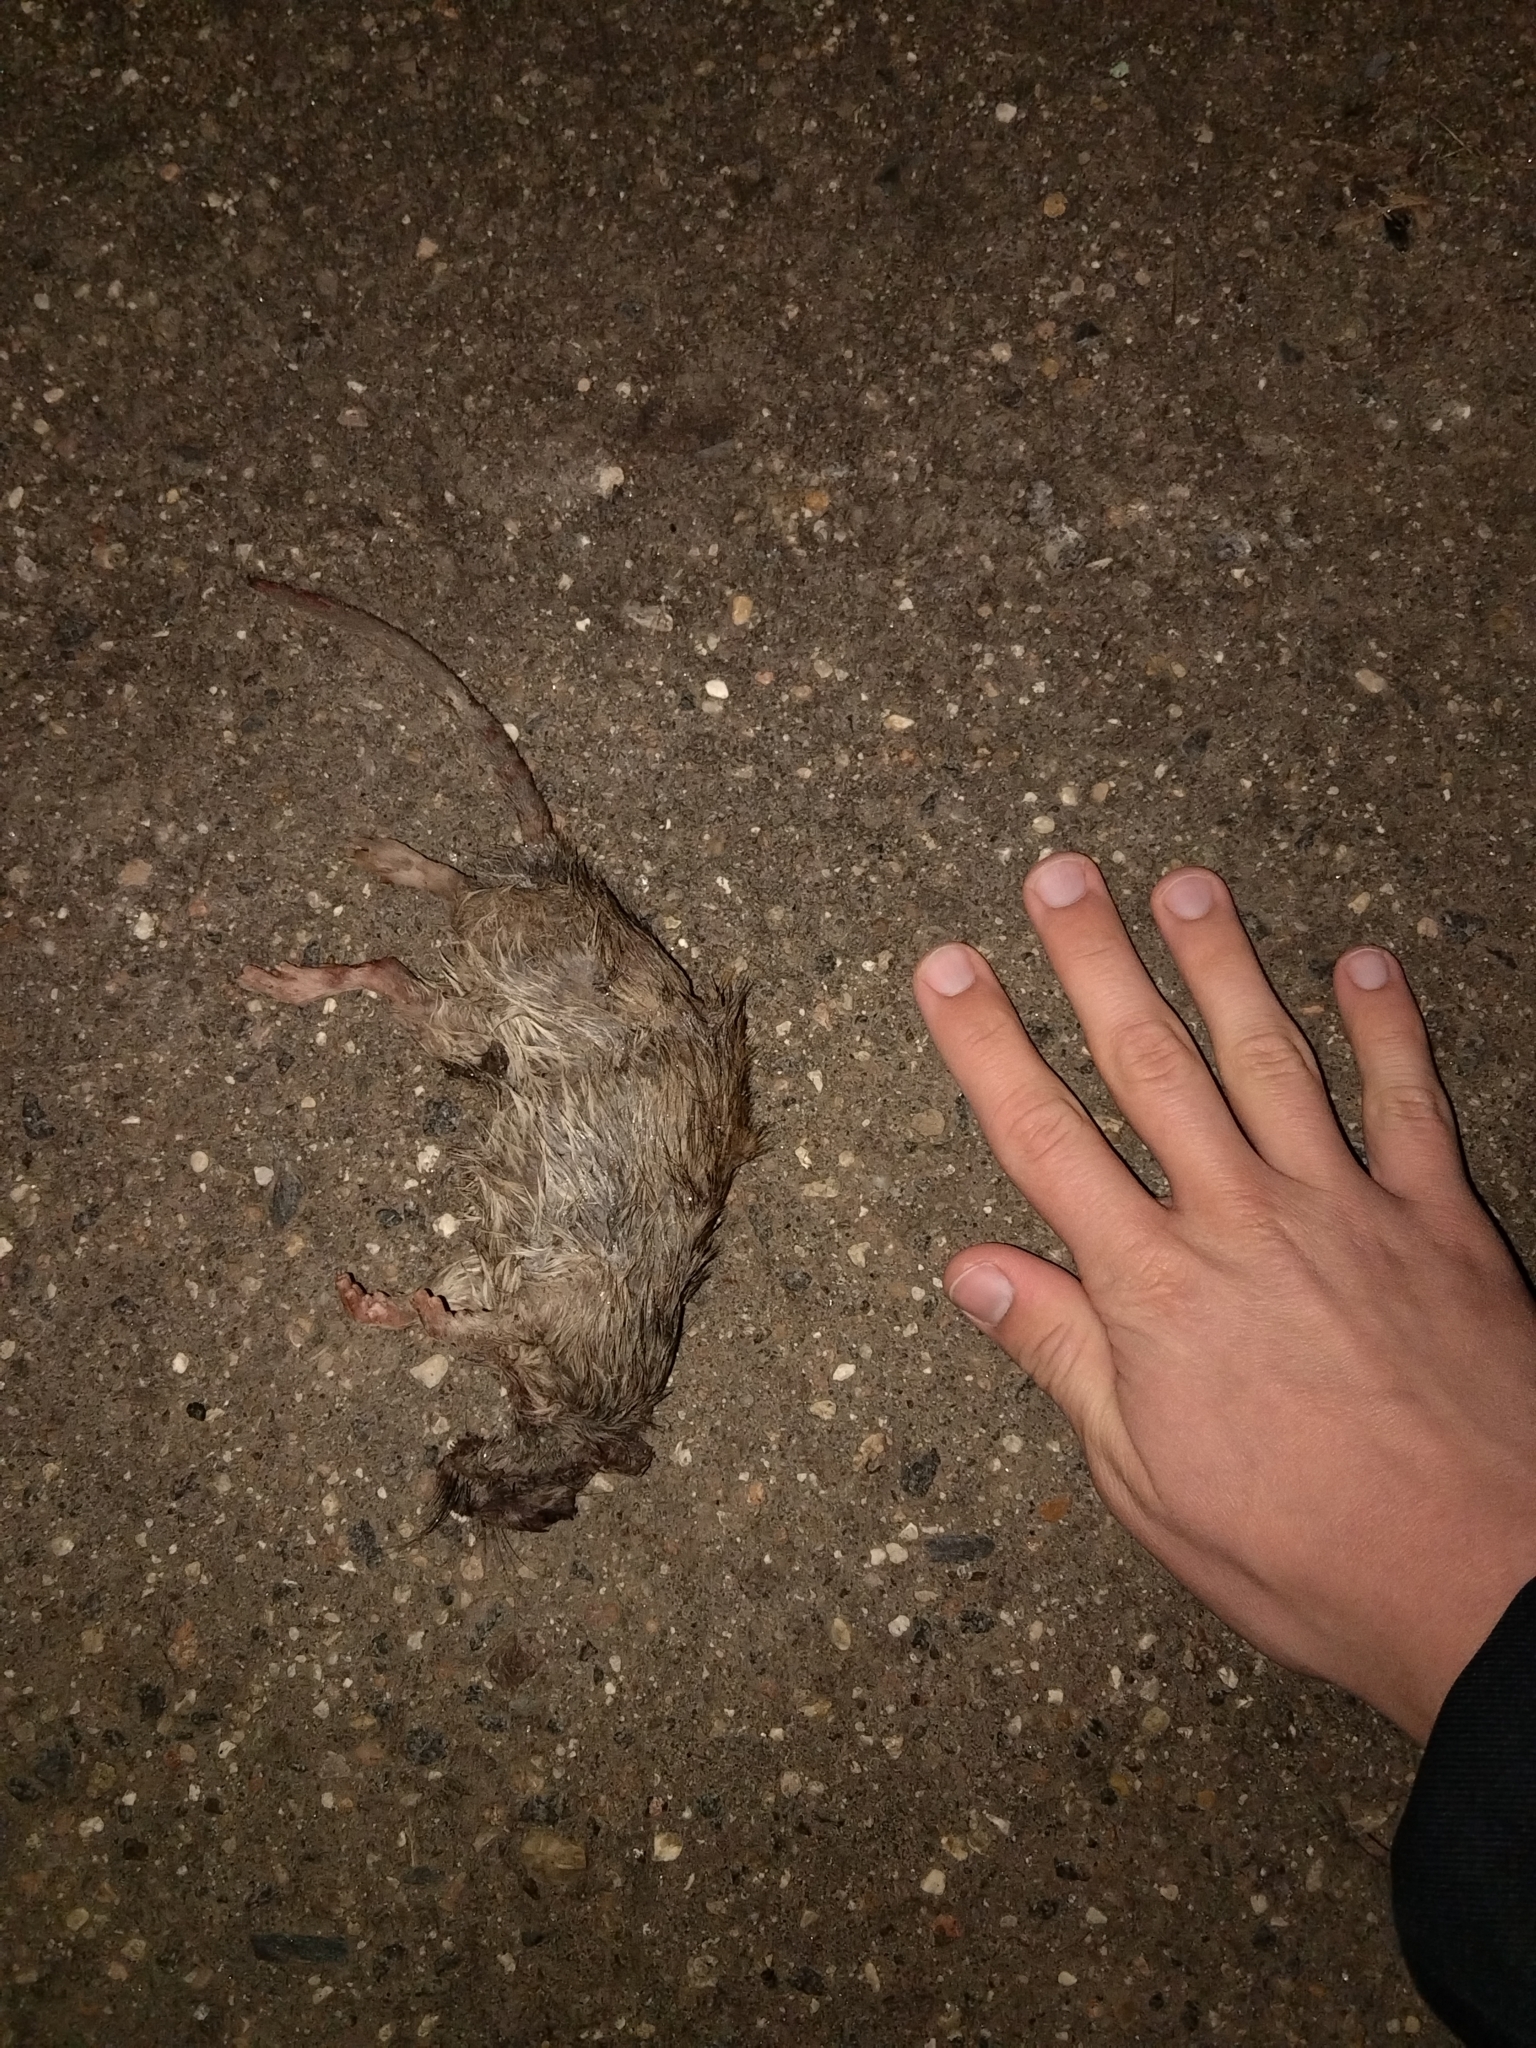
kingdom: Animalia
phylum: Chordata
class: Mammalia
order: Rodentia
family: Muridae
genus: Rattus
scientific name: Rattus norvegicus
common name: Brown rat
